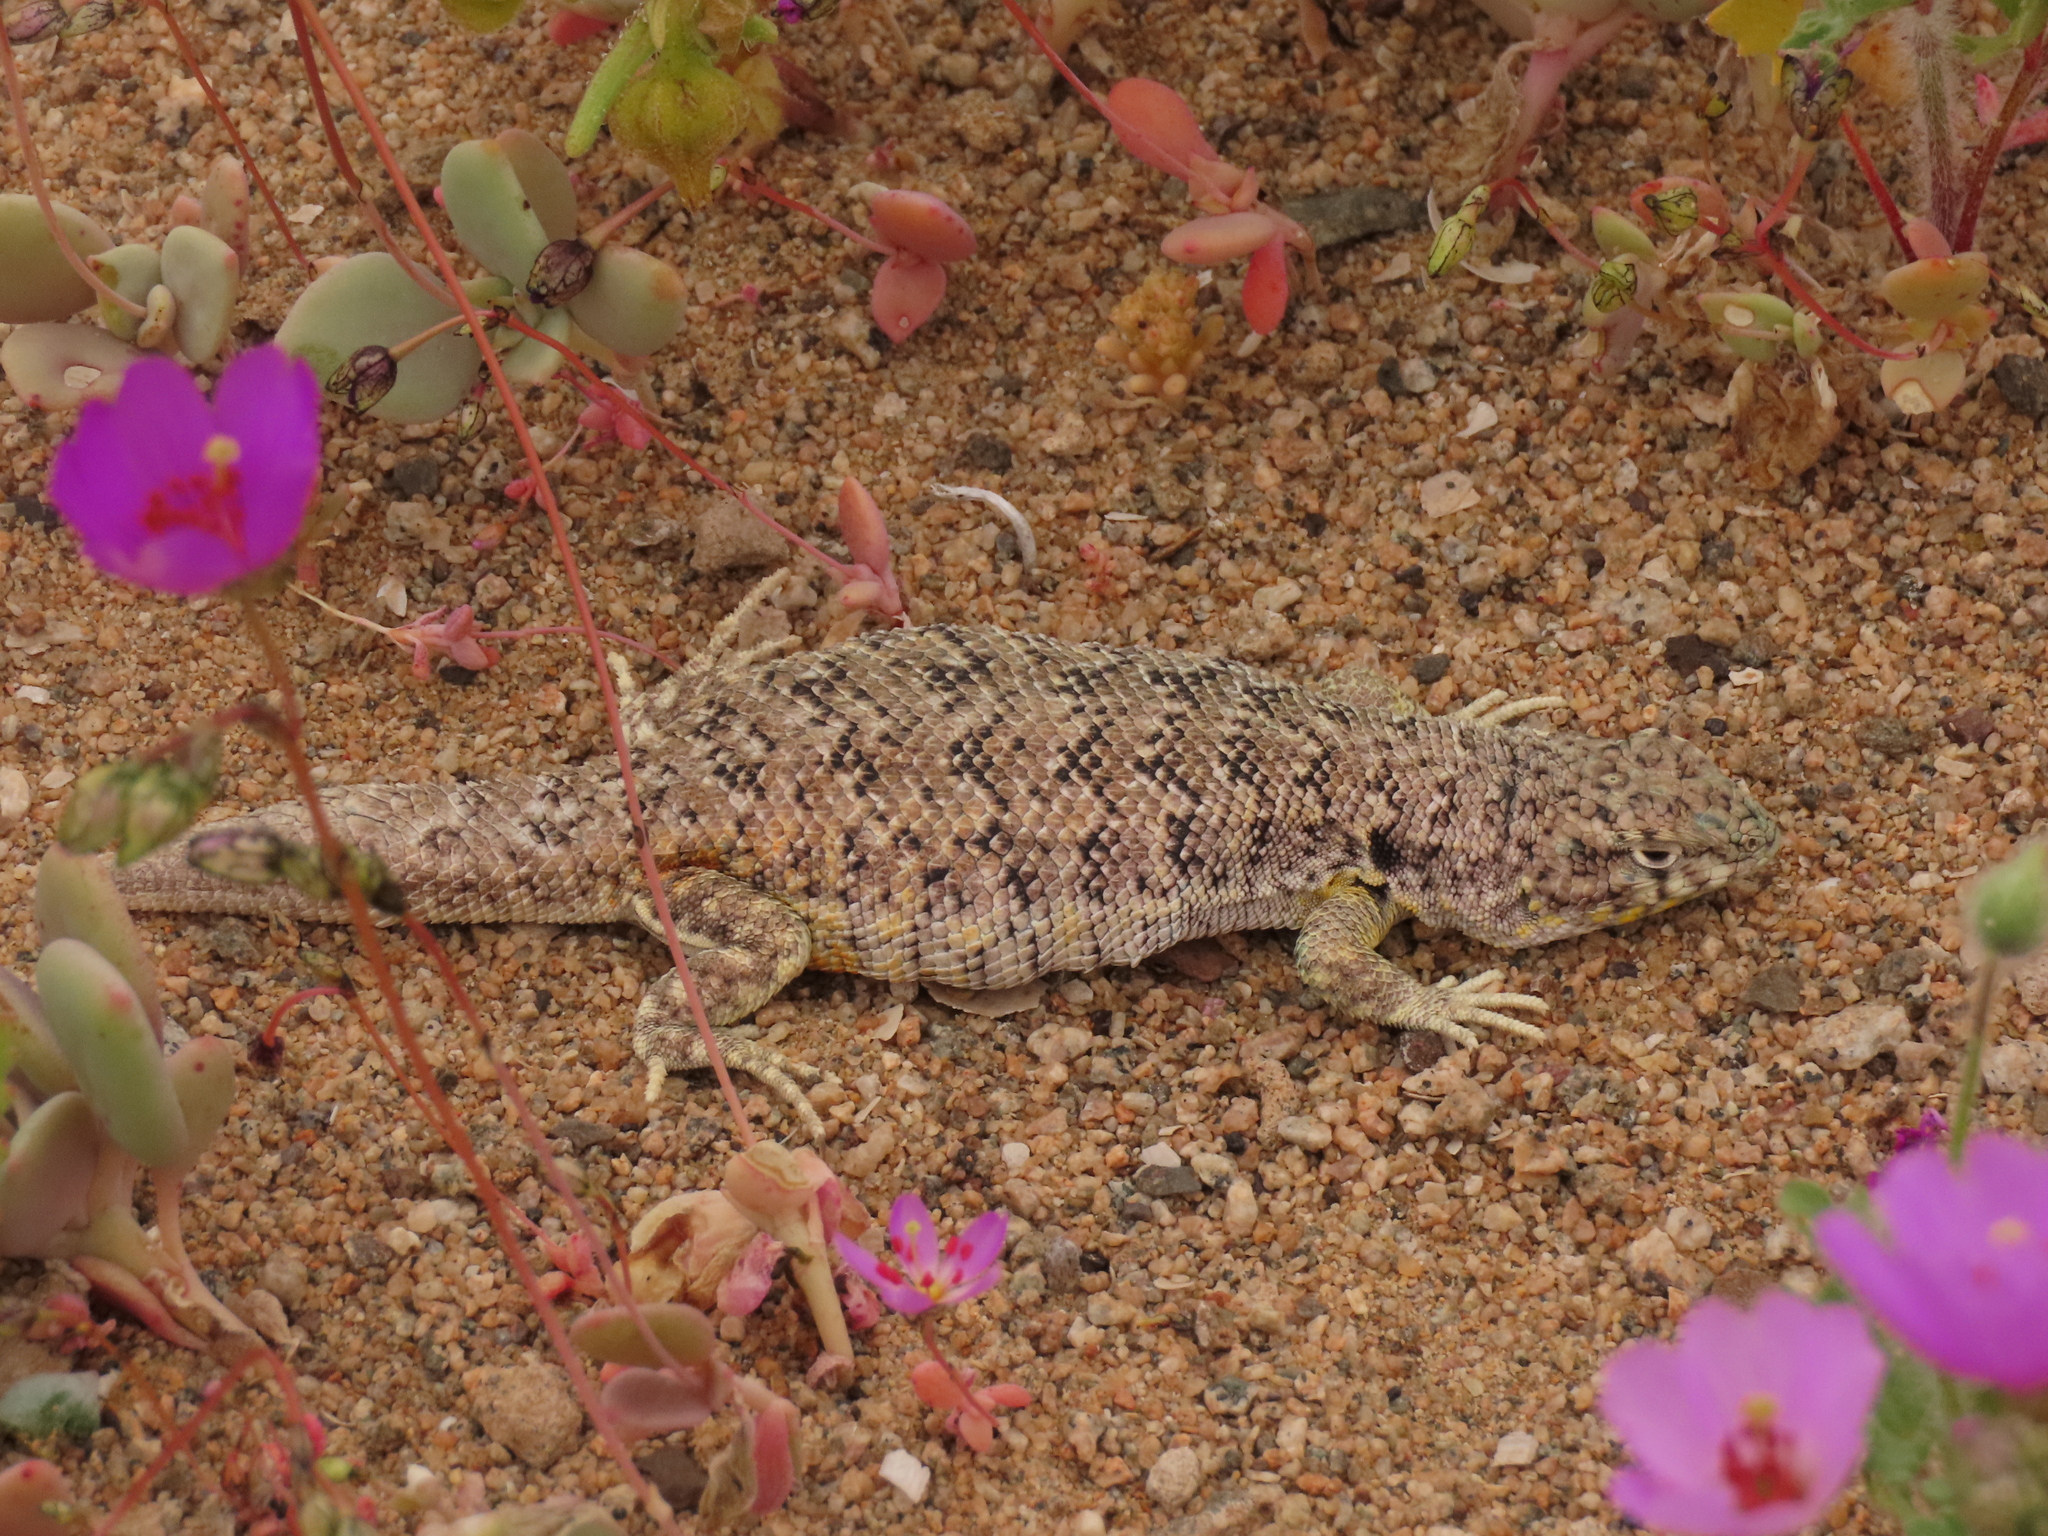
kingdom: Animalia
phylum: Chordata
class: Squamata
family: Liolaemidae
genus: Liolaemus
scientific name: Liolaemus nigromaculatus
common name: Many-spotted tree iguana
